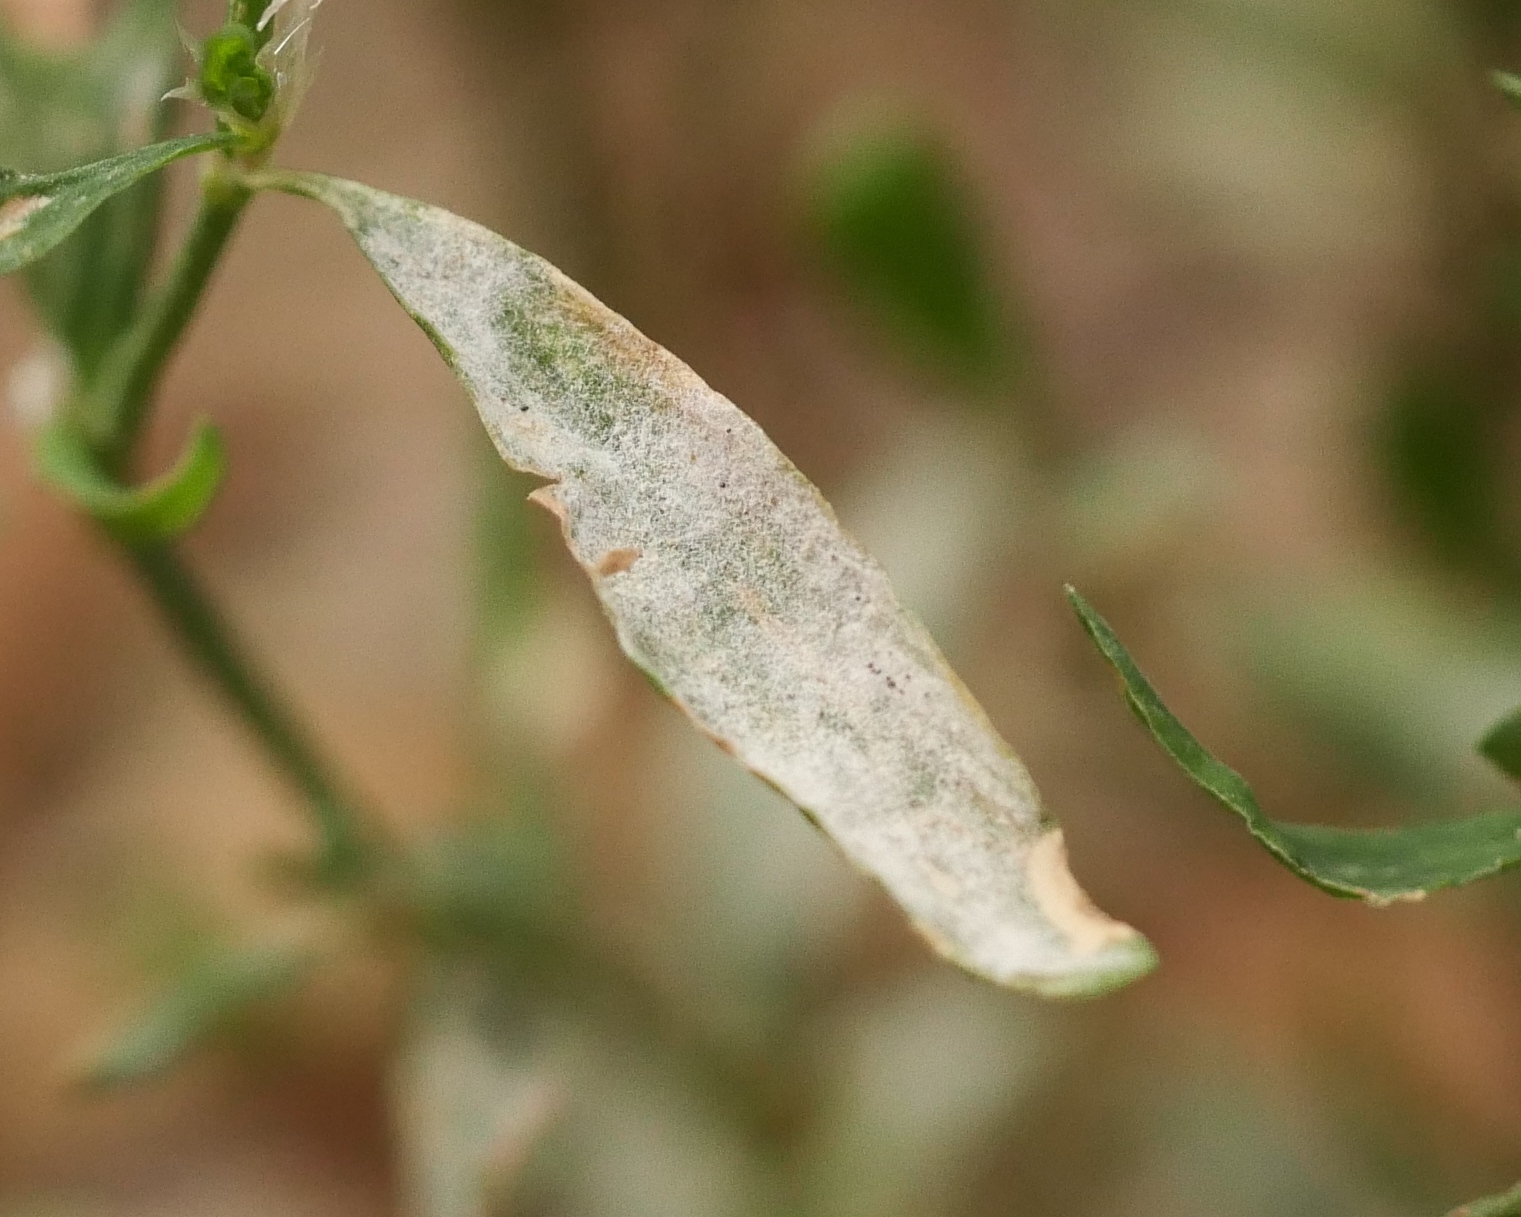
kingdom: Fungi
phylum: Ascomycota
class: Leotiomycetes
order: Helotiales
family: Erysiphaceae
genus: Erysiphe
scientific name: Erysiphe polygoni
